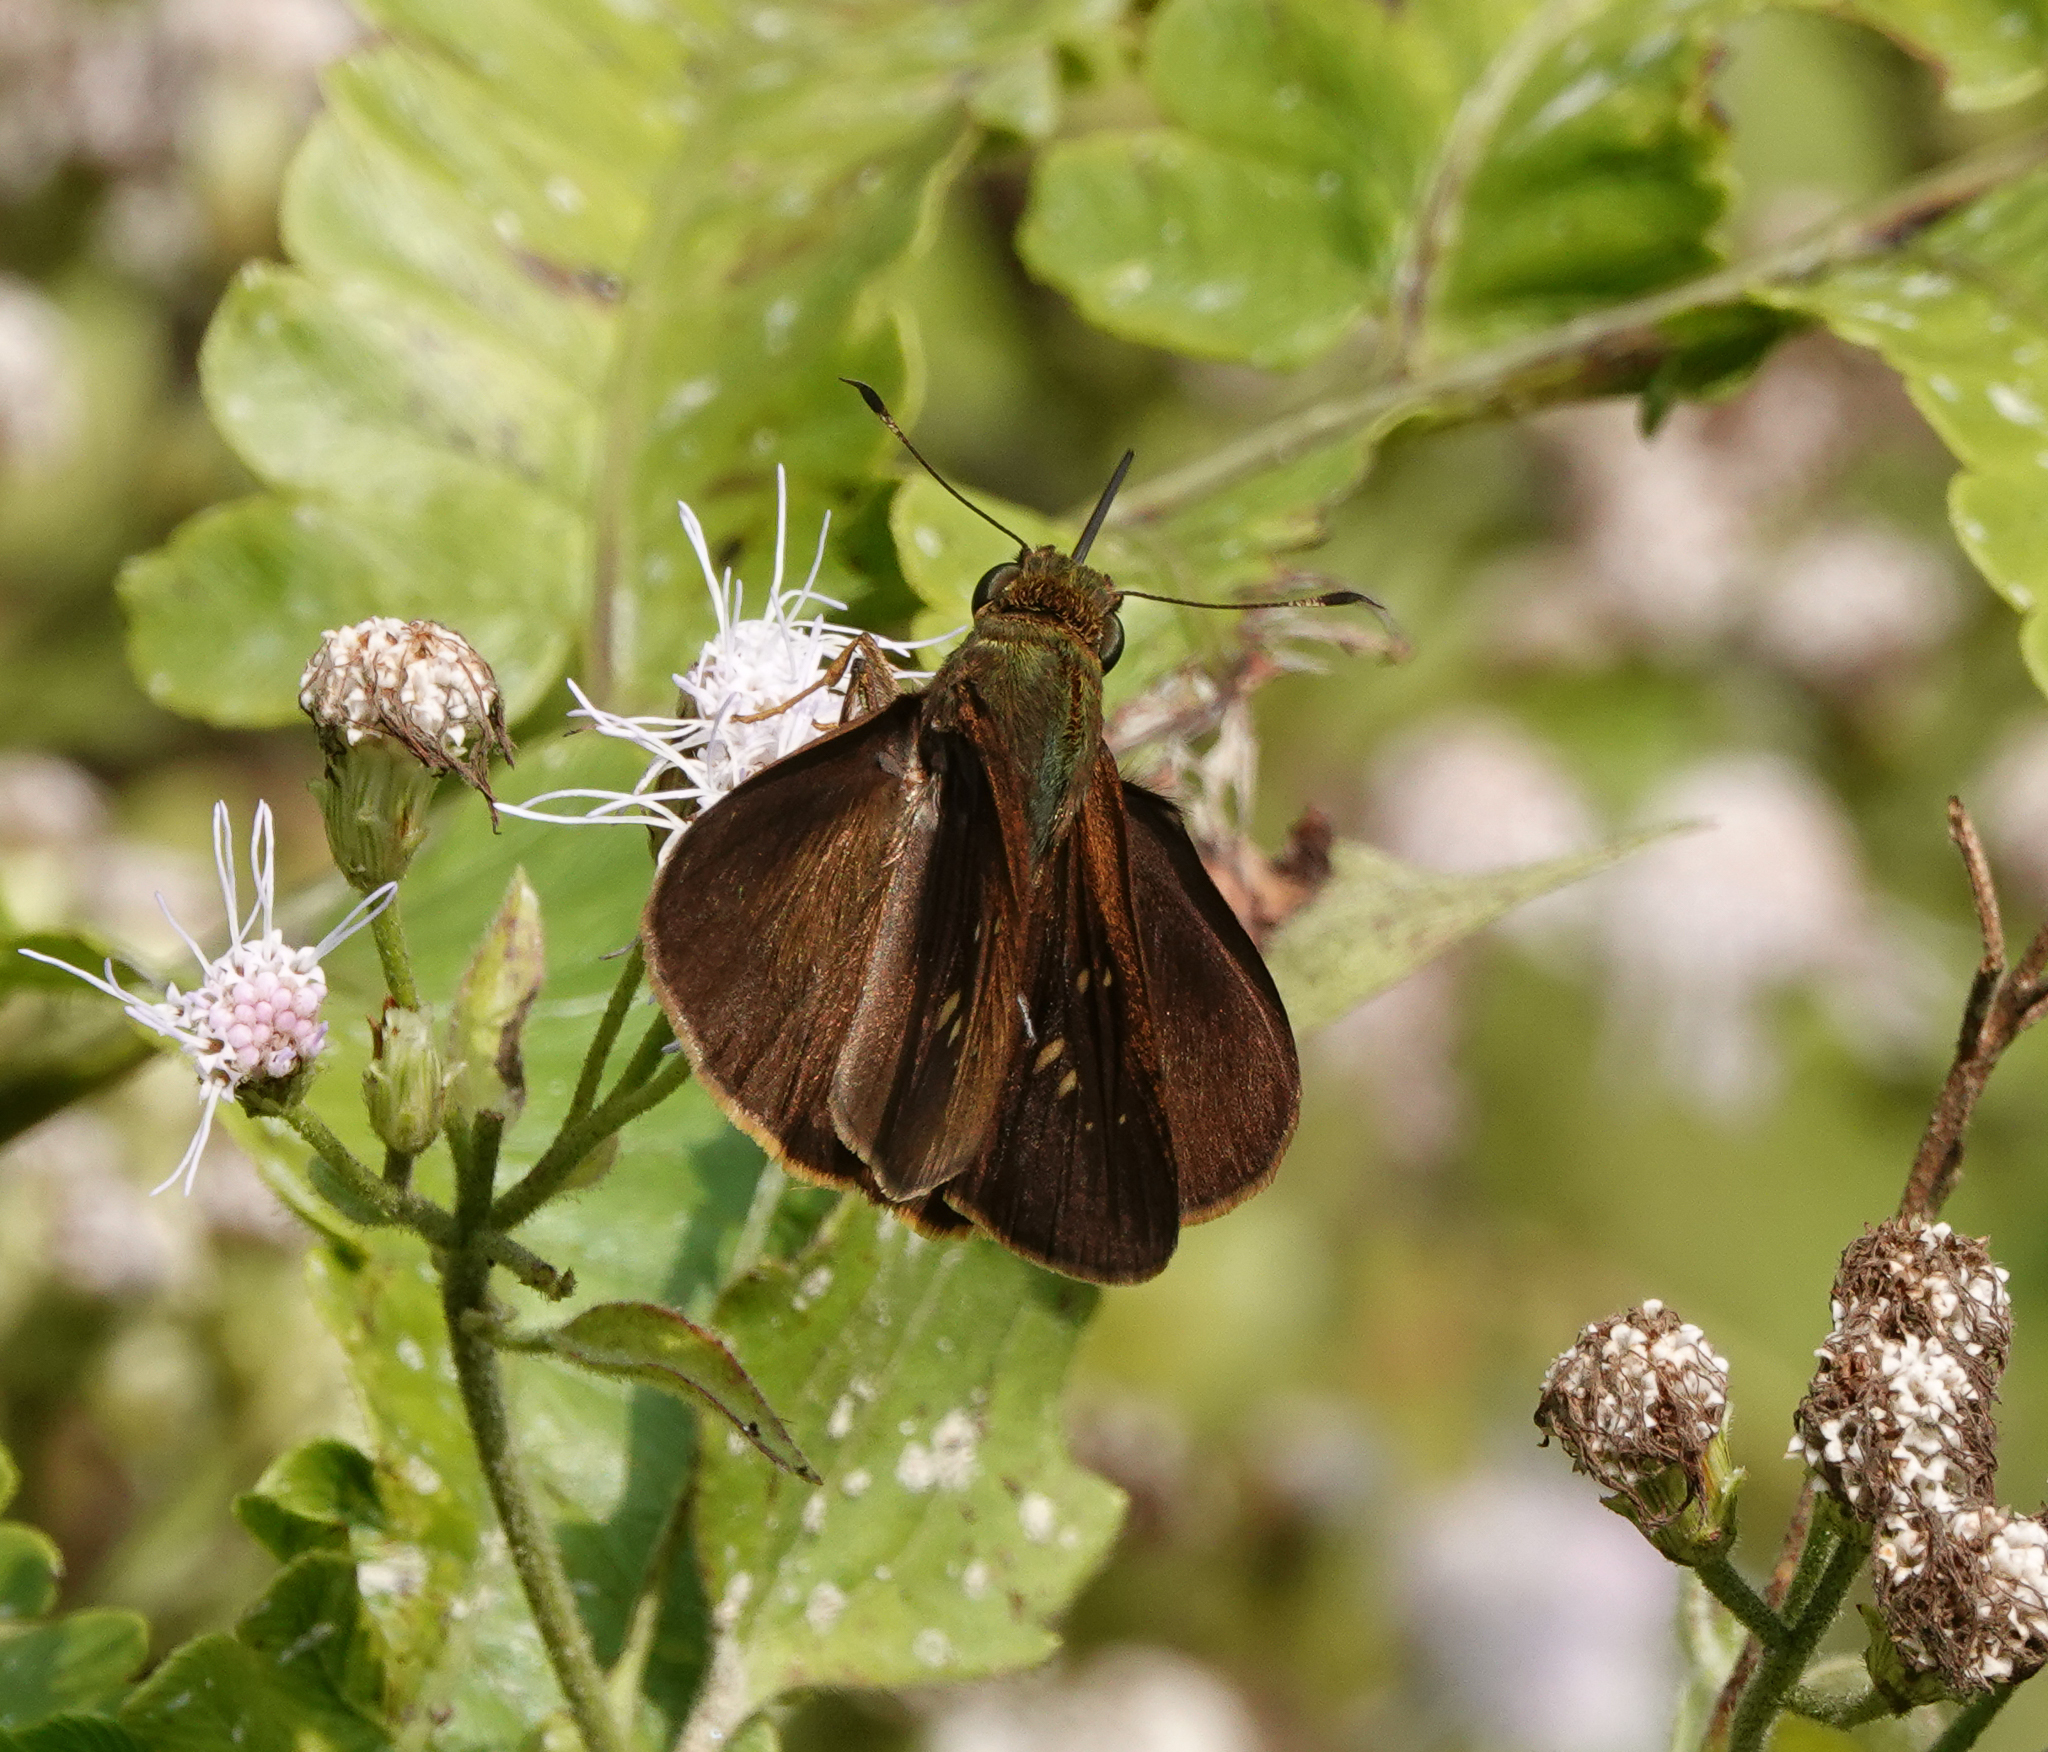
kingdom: Animalia
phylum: Arthropoda
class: Insecta
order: Lepidoptera
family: Hesperiidae
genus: Pelopidas
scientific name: Pelopidas agna
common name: Little branded swift
